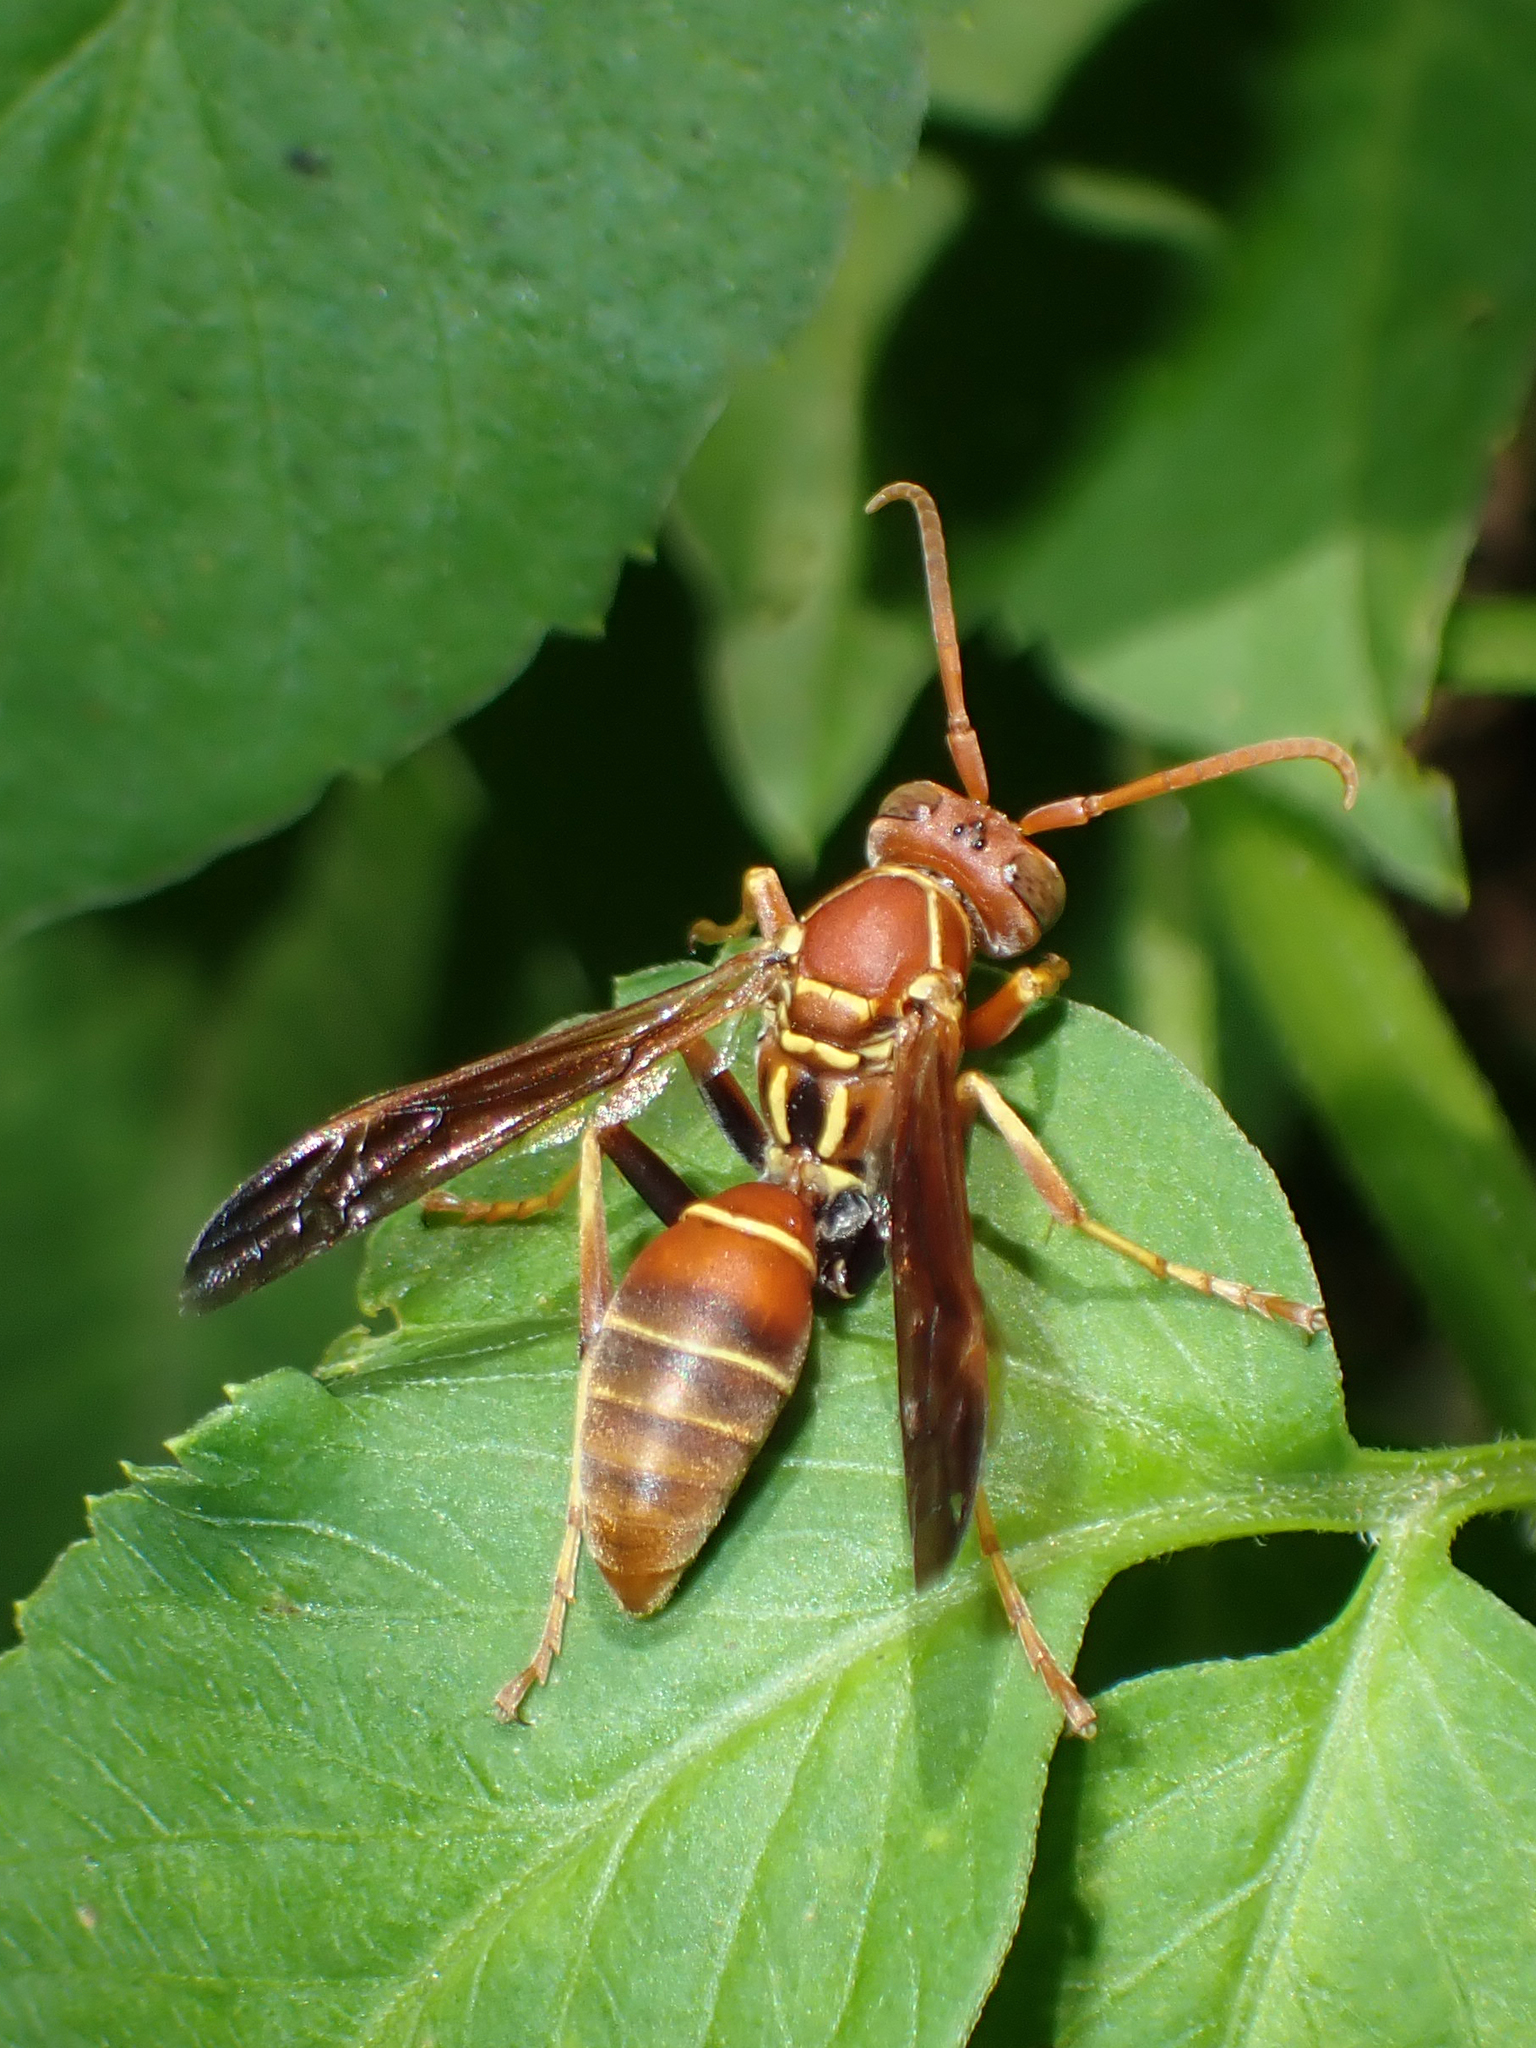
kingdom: Animalia
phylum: Arthropoda
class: Insecta
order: Hymenoptera
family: Eumenidae
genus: Polistes
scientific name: Polistes dorsalis
